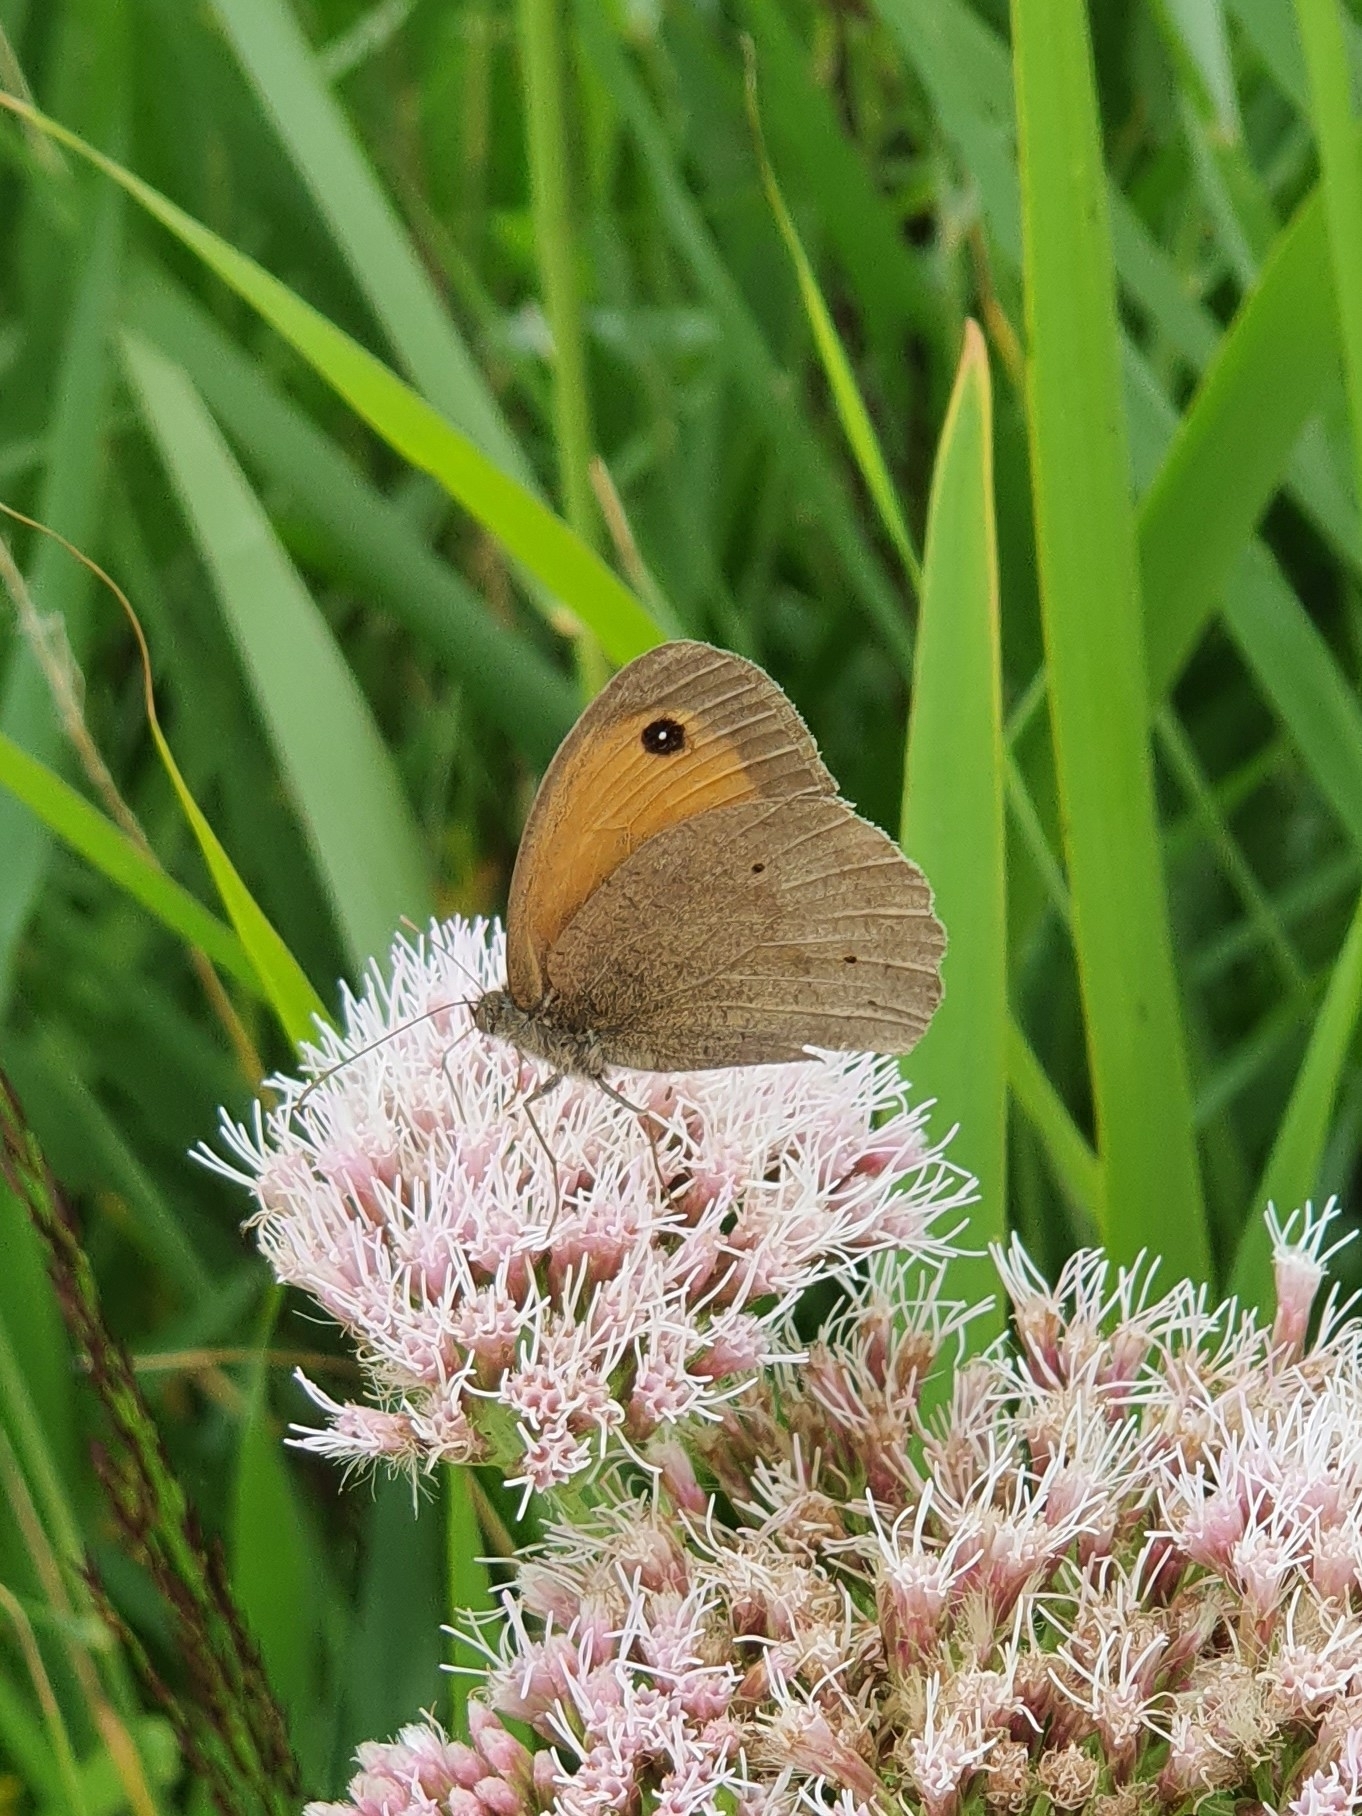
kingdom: Animalia
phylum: Arthropoda
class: Insecta
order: Lepidoptera
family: Nymphalidae
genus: Maniola
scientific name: Maniola jurtina
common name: Meadow brown
